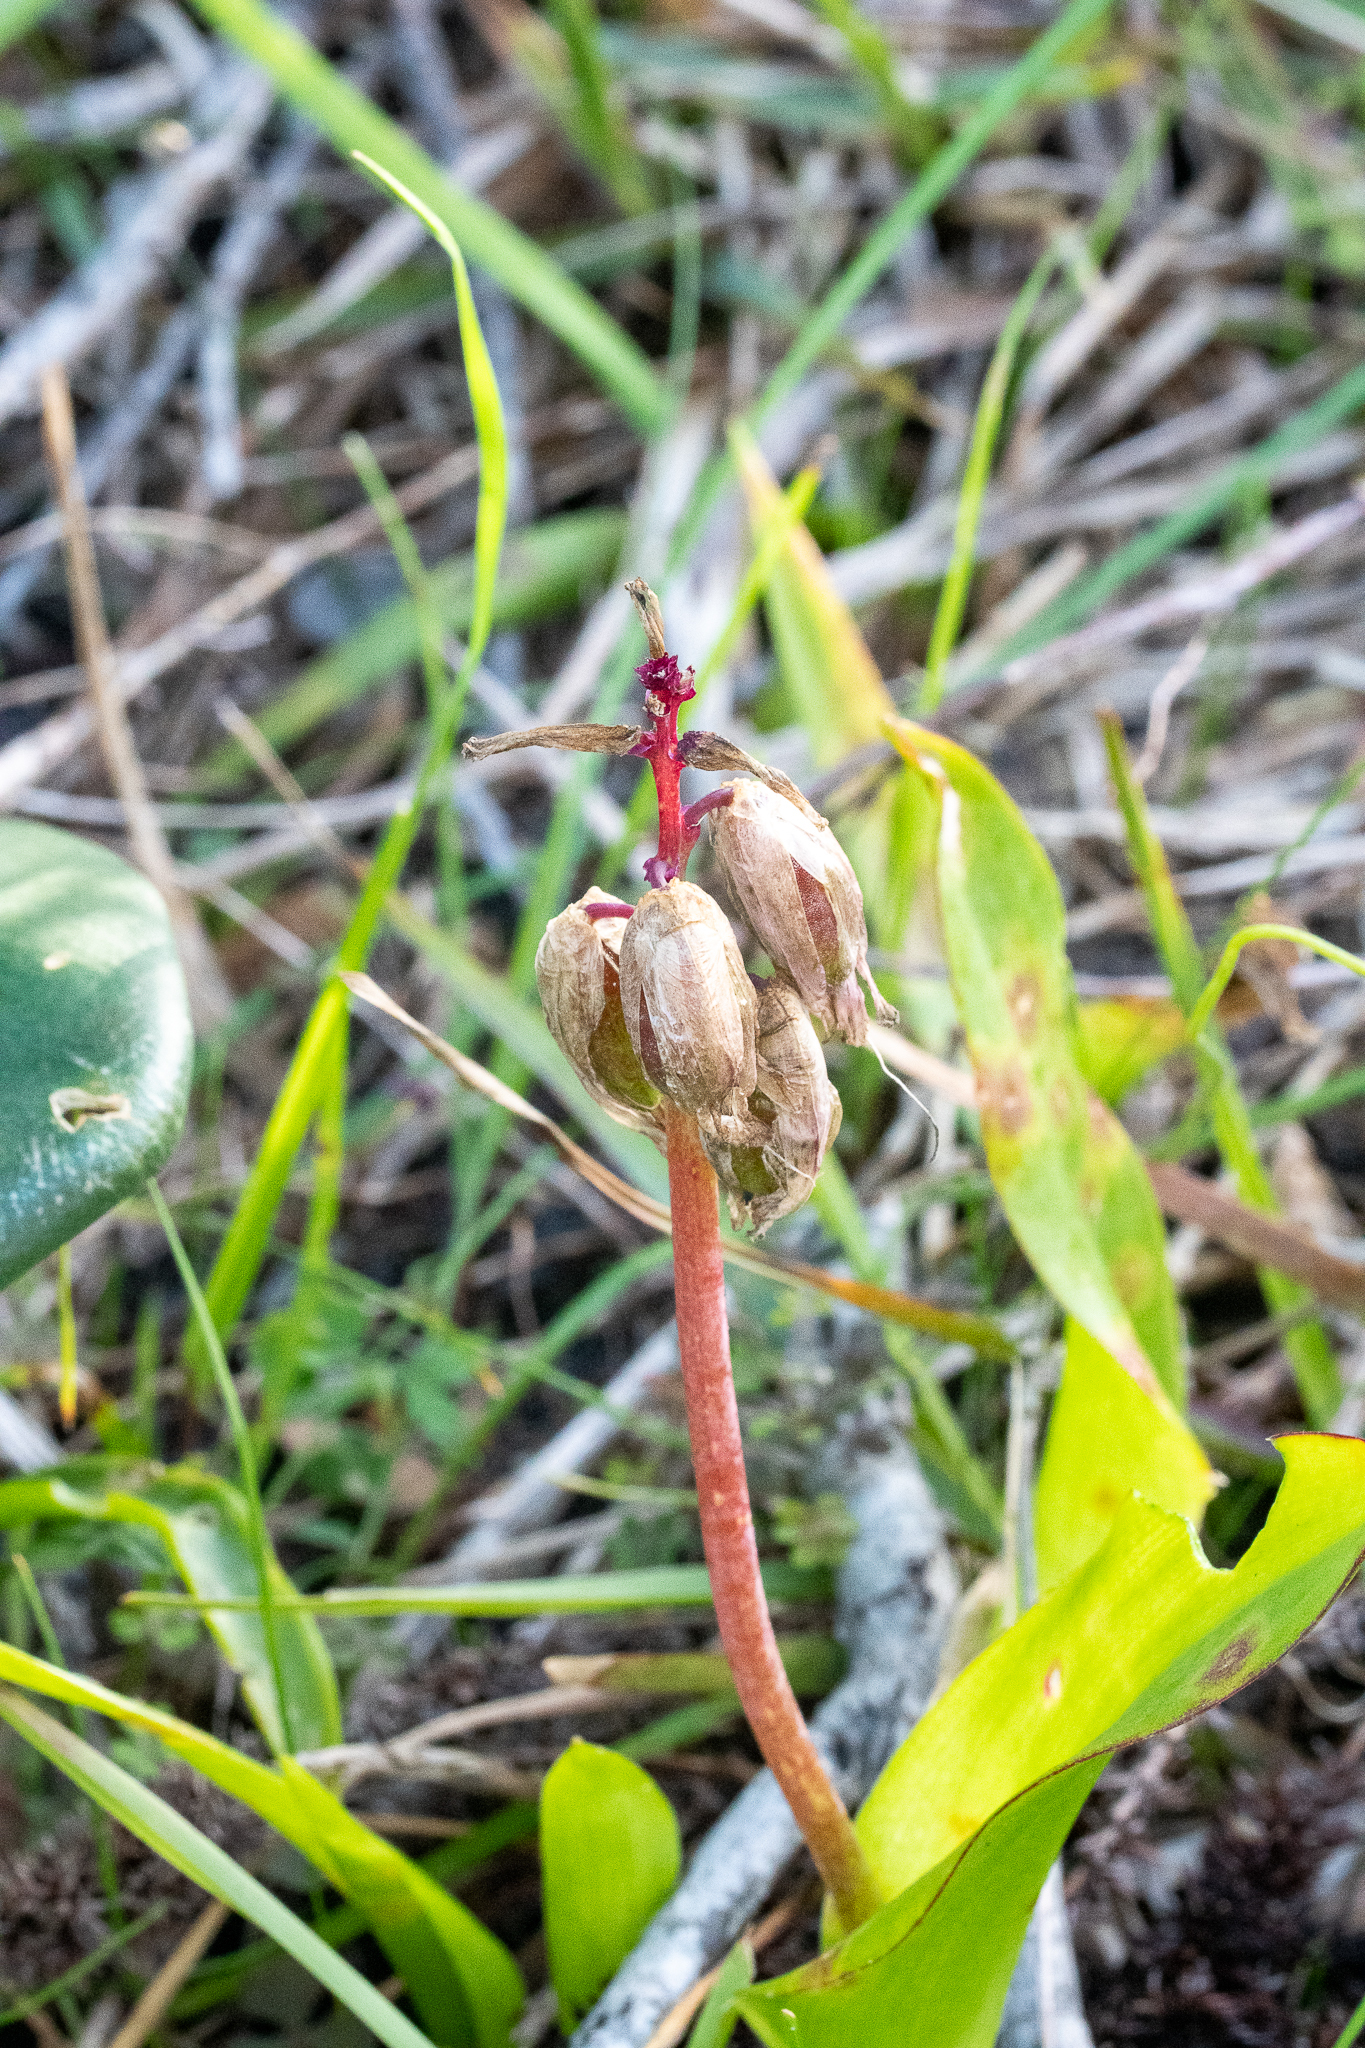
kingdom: Plantae
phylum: Tracheophyta
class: Liliopsida
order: Asparagales
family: Asparagaceae
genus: Lachenalia
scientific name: Lachenalia bulbifera
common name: Red lachenalia
